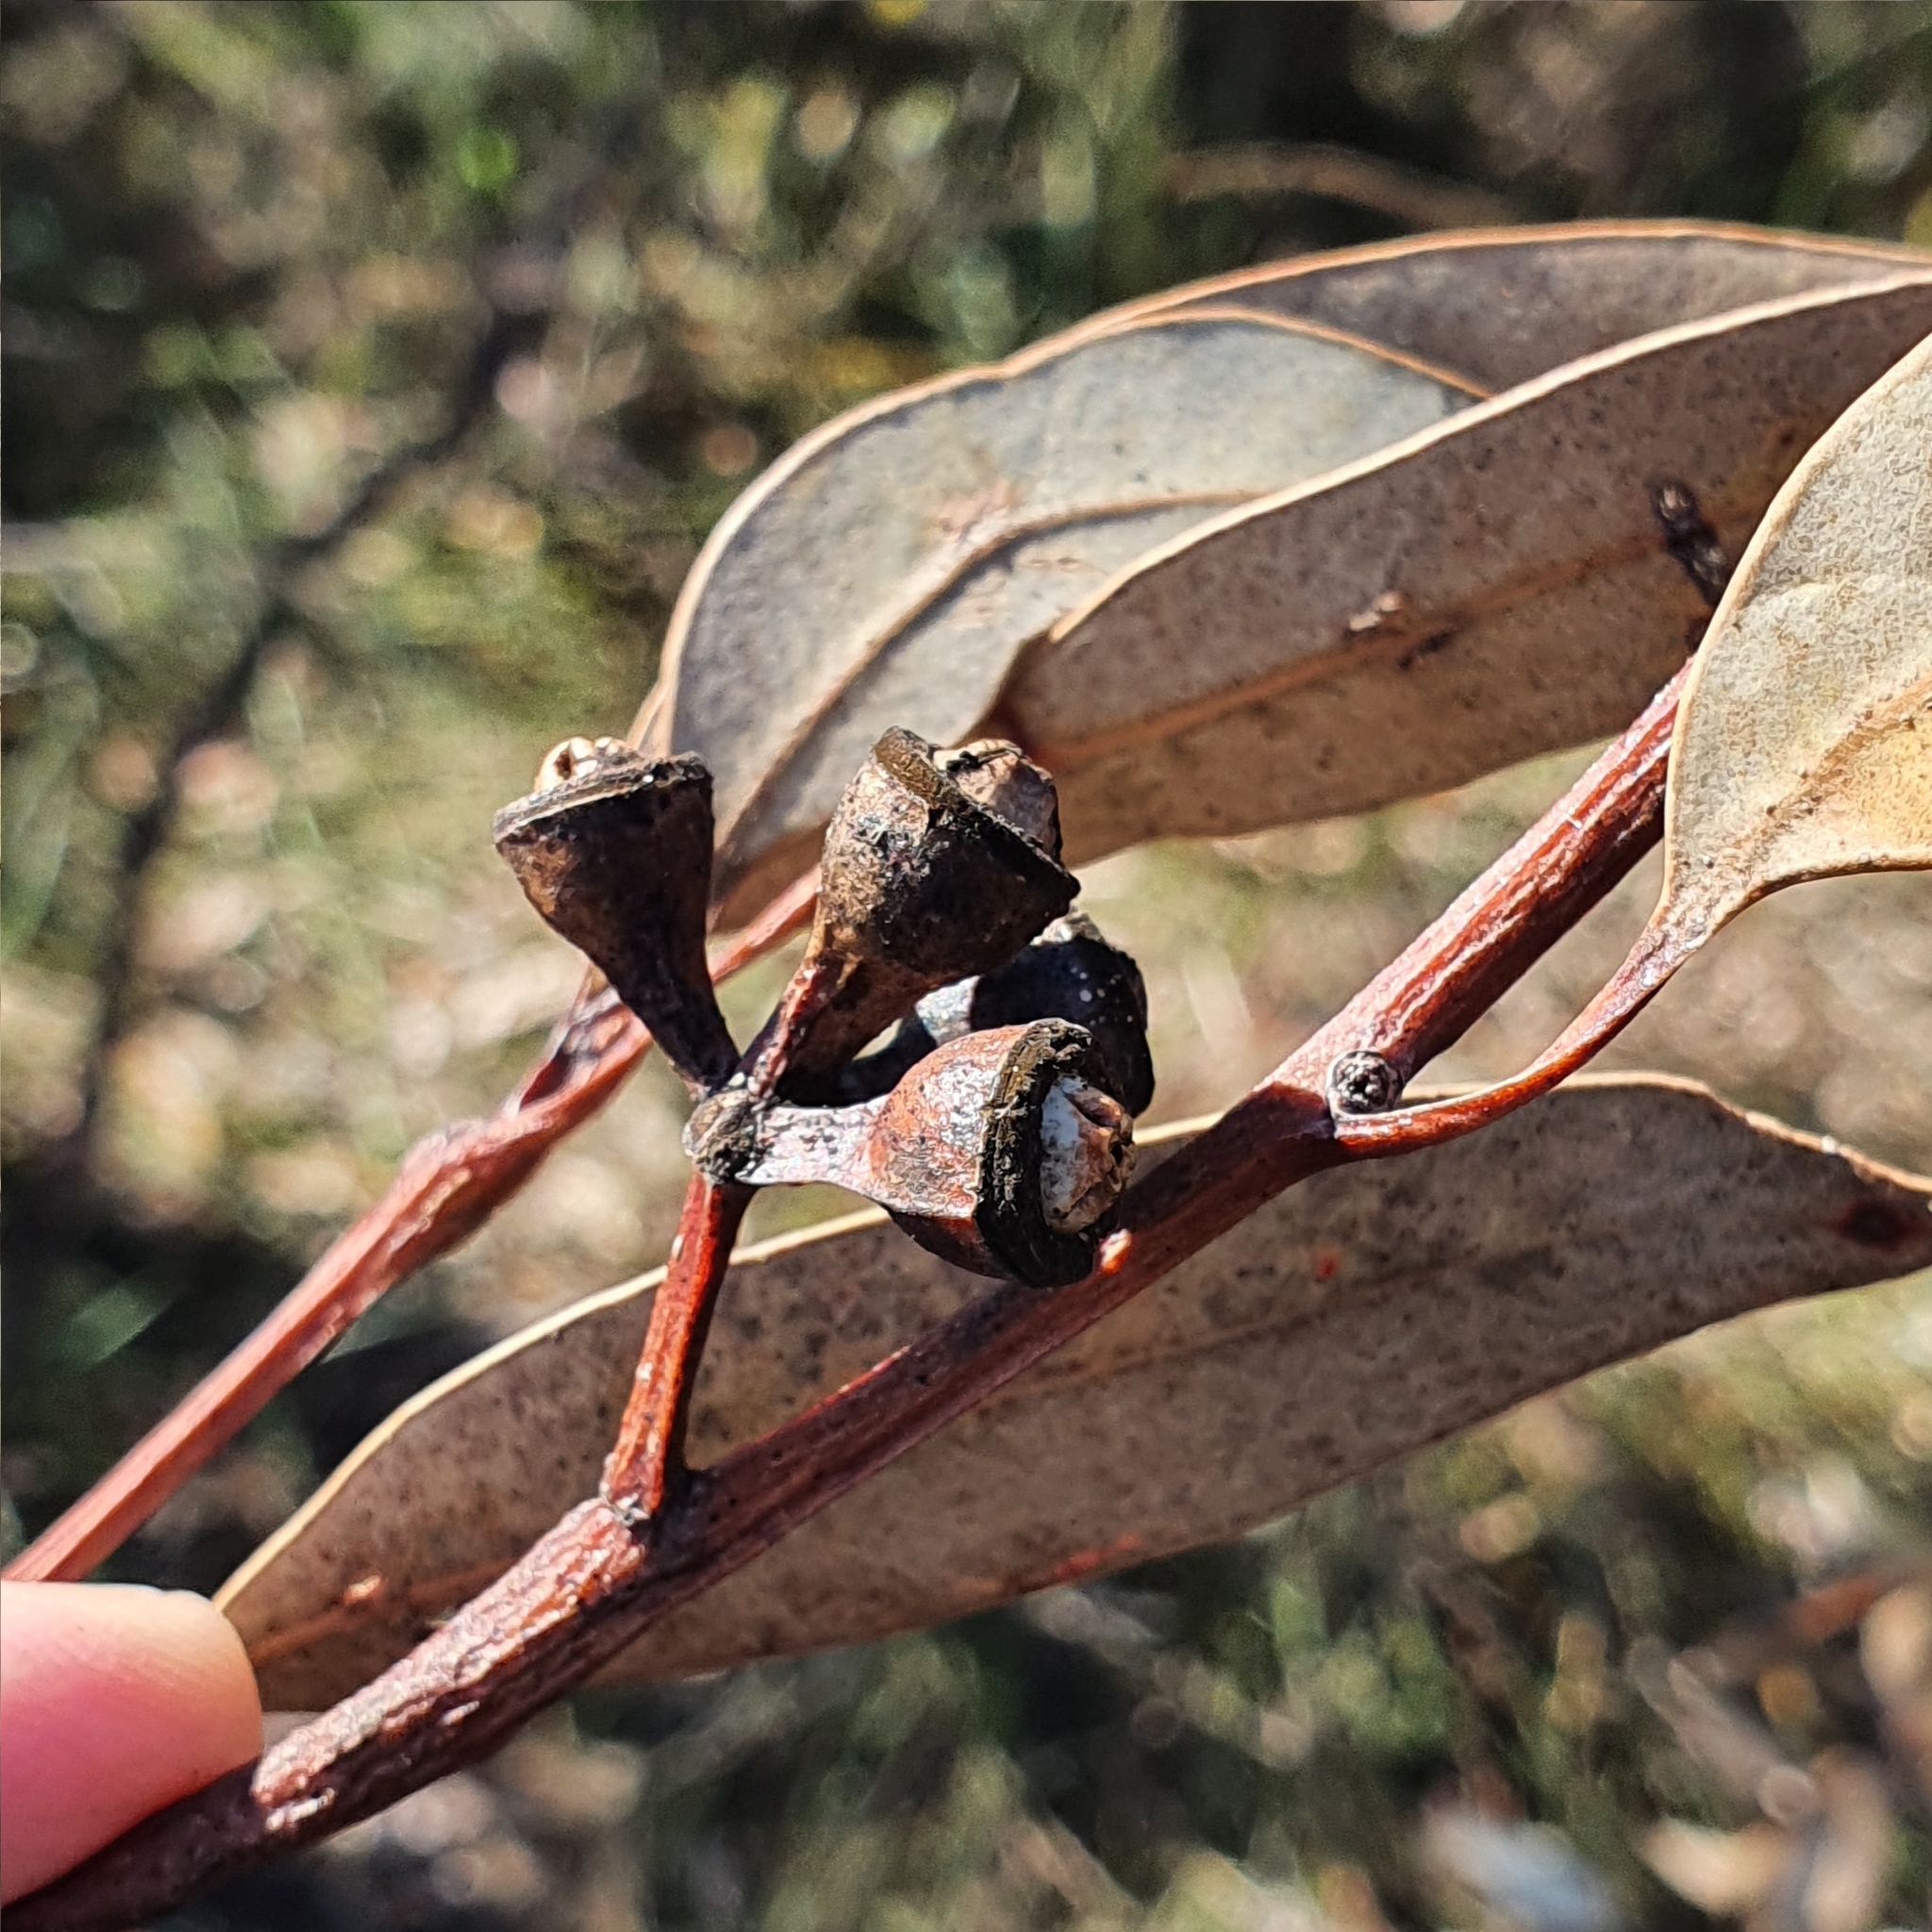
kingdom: Plantae
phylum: Tracheophyta
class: Magnoliopsida
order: Myrtales
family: Myrtaceae
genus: Eucalyptus
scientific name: Eucalyptus punctata
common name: Gray gum
